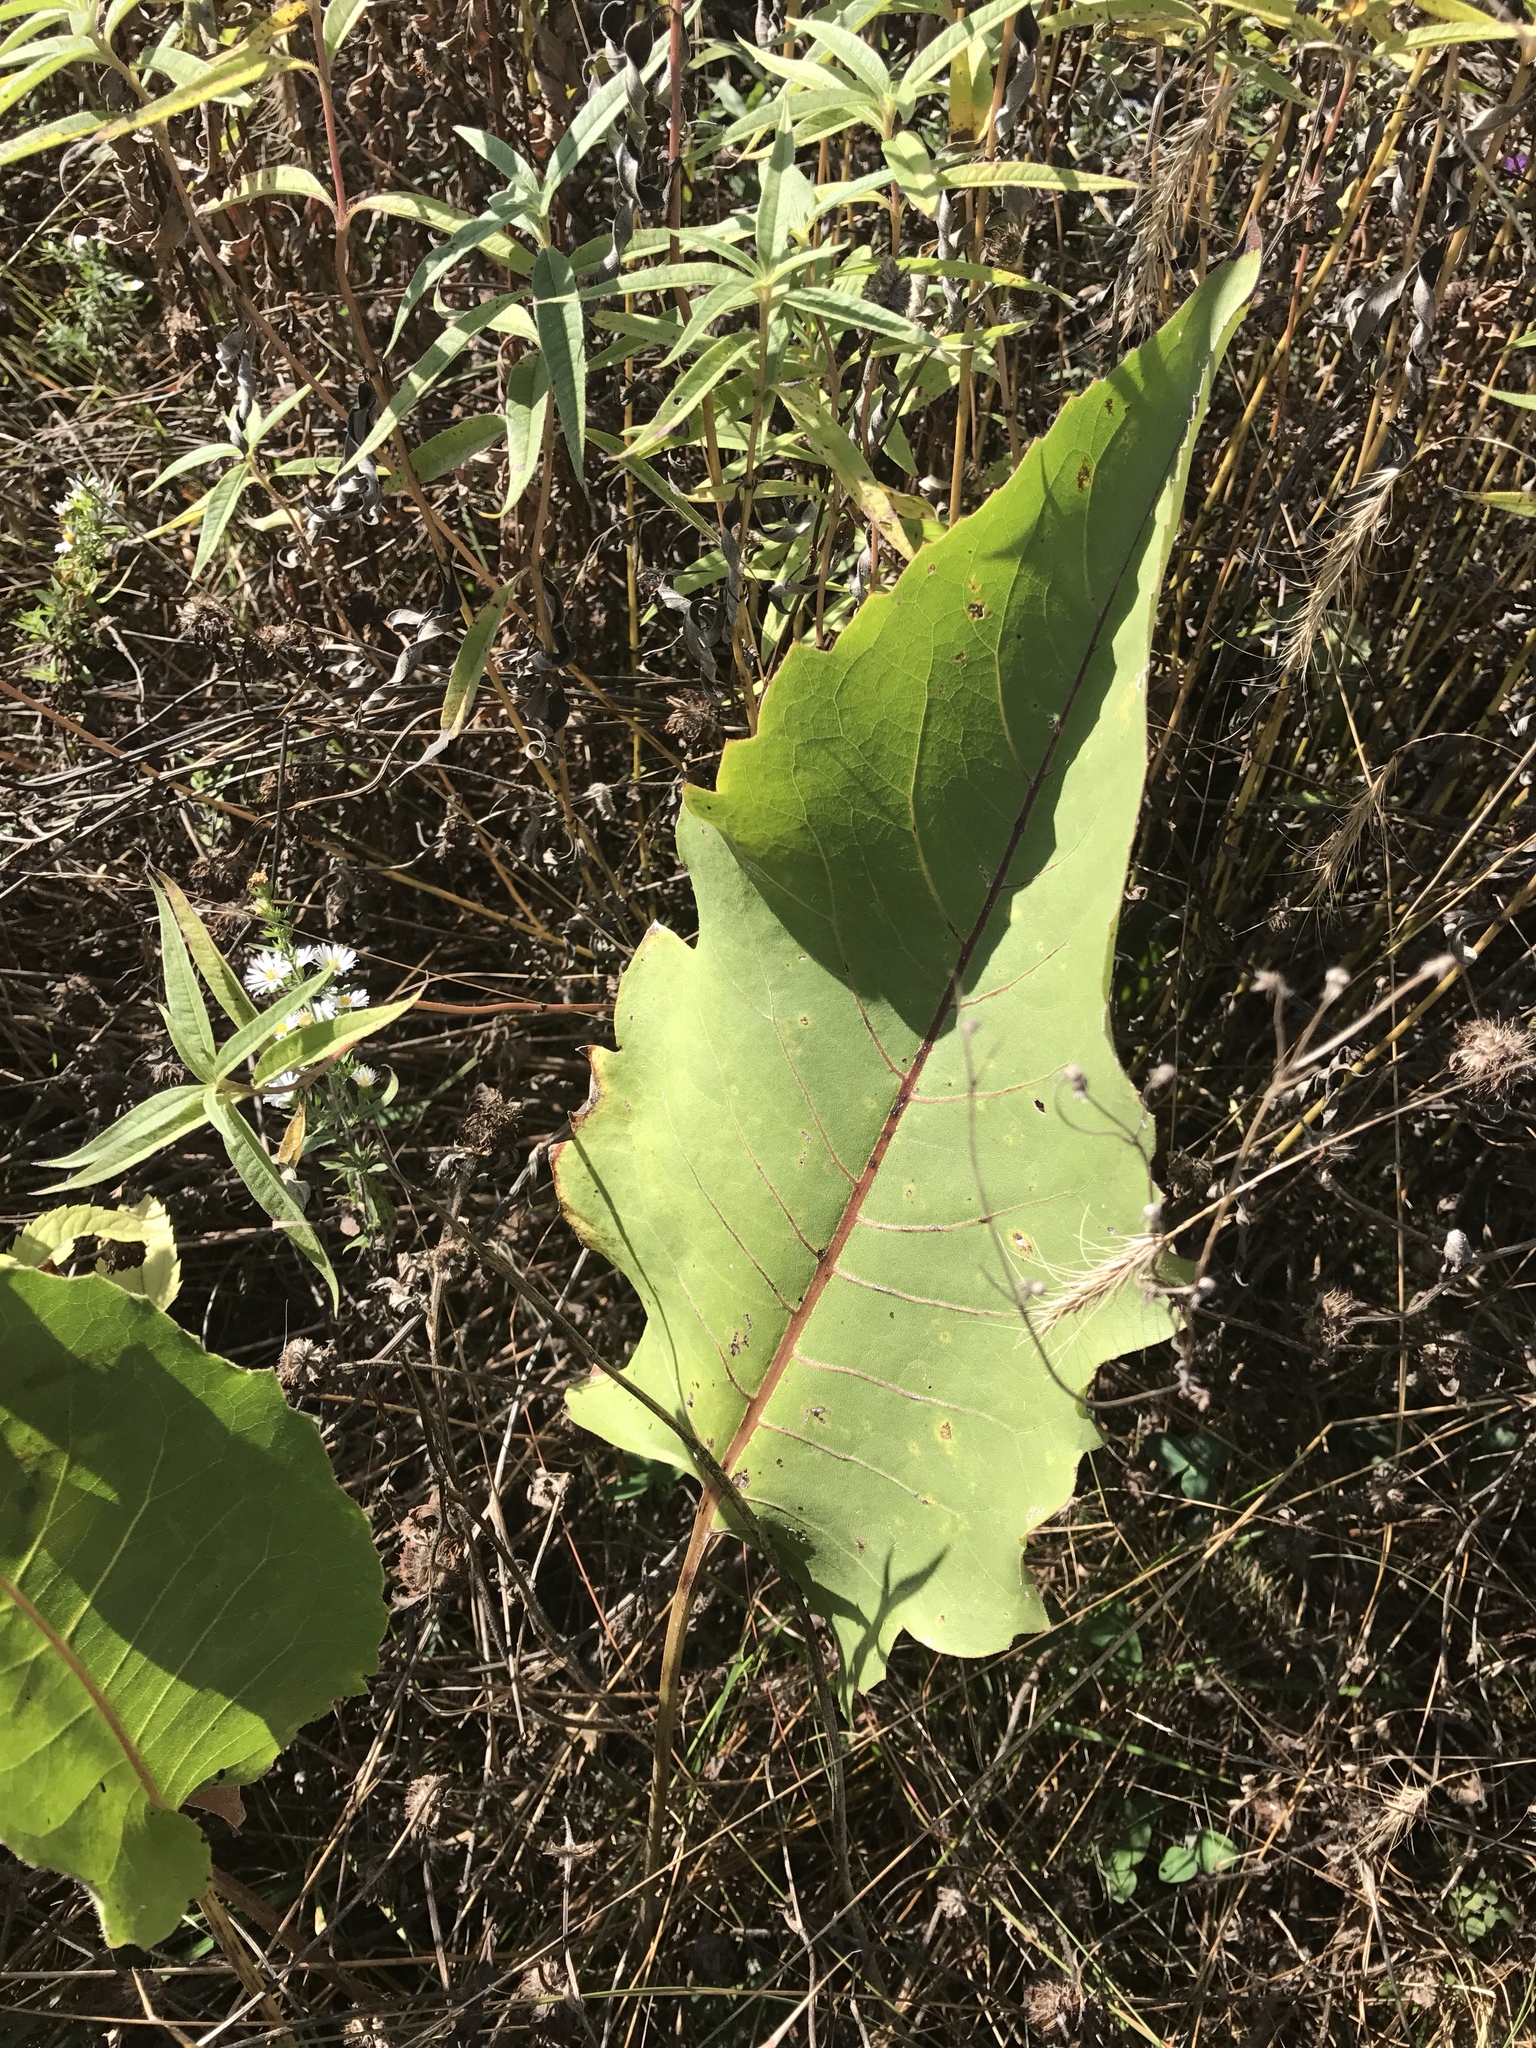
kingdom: Plantae
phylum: Tracheophyta
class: Magnoliopsida
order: Asterales
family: Asteraceae
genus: Silphium
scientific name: Silphium terebinthinaceum
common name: Basal-leaf rosinweed
